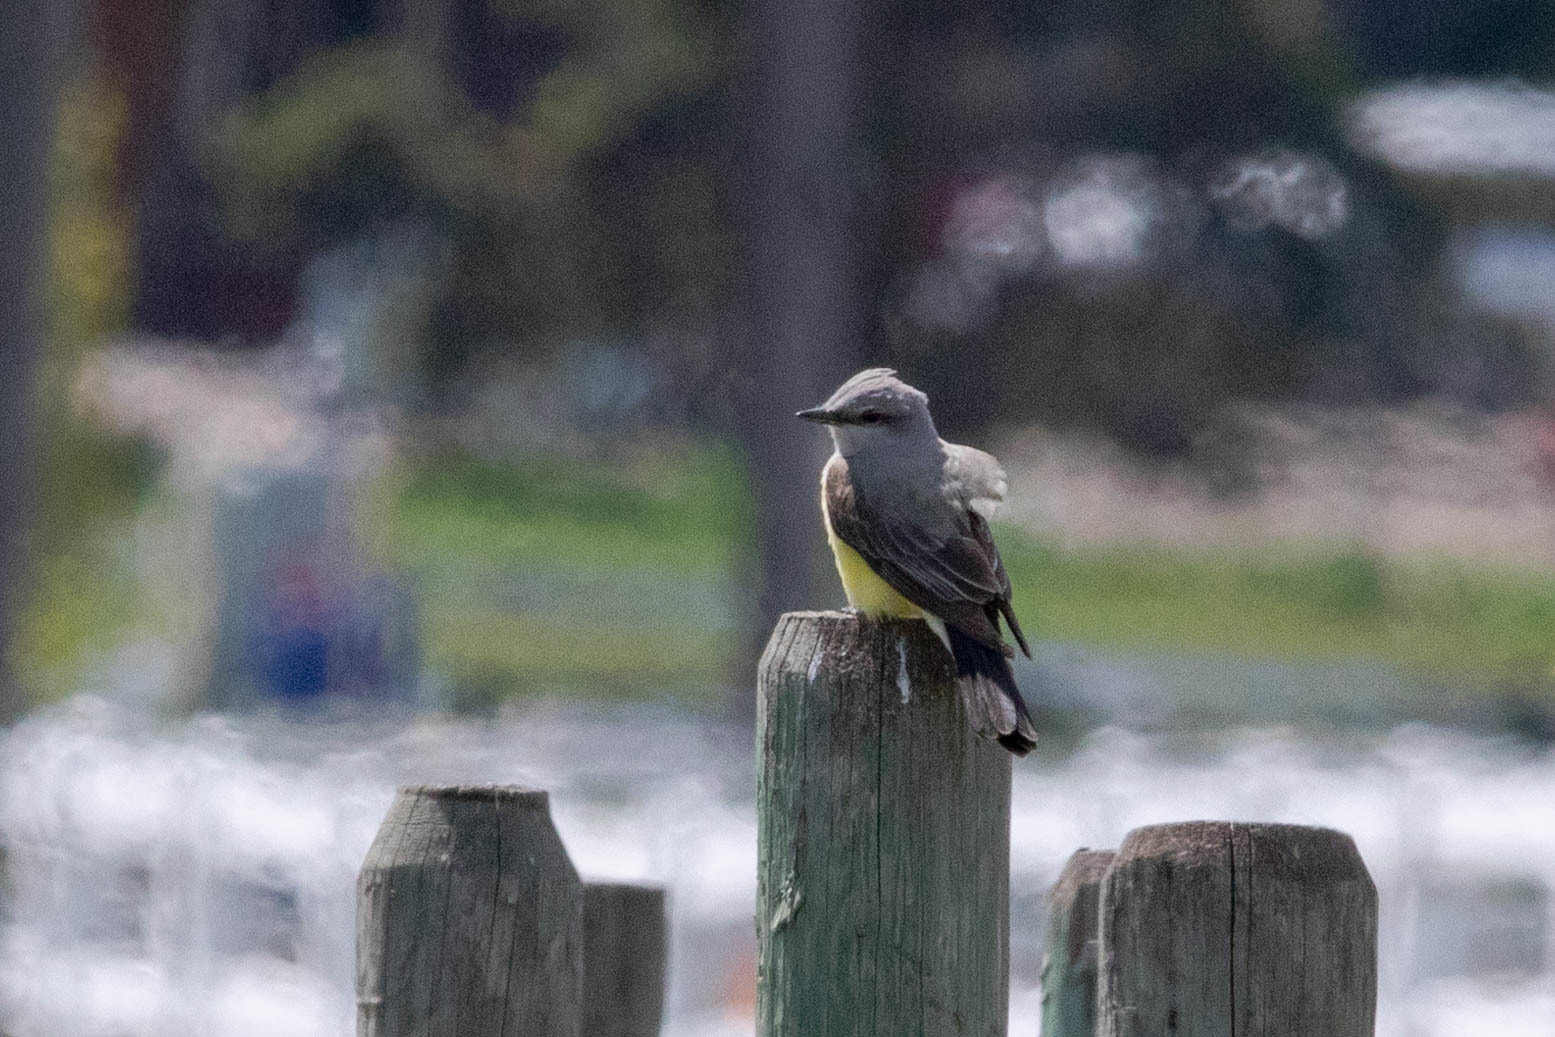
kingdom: Animalia
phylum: Chordata
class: Aves
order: Passeriformes
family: Tyrannidae
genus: Tyrannus
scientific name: Tyrannus verticalis
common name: Western kingbird
